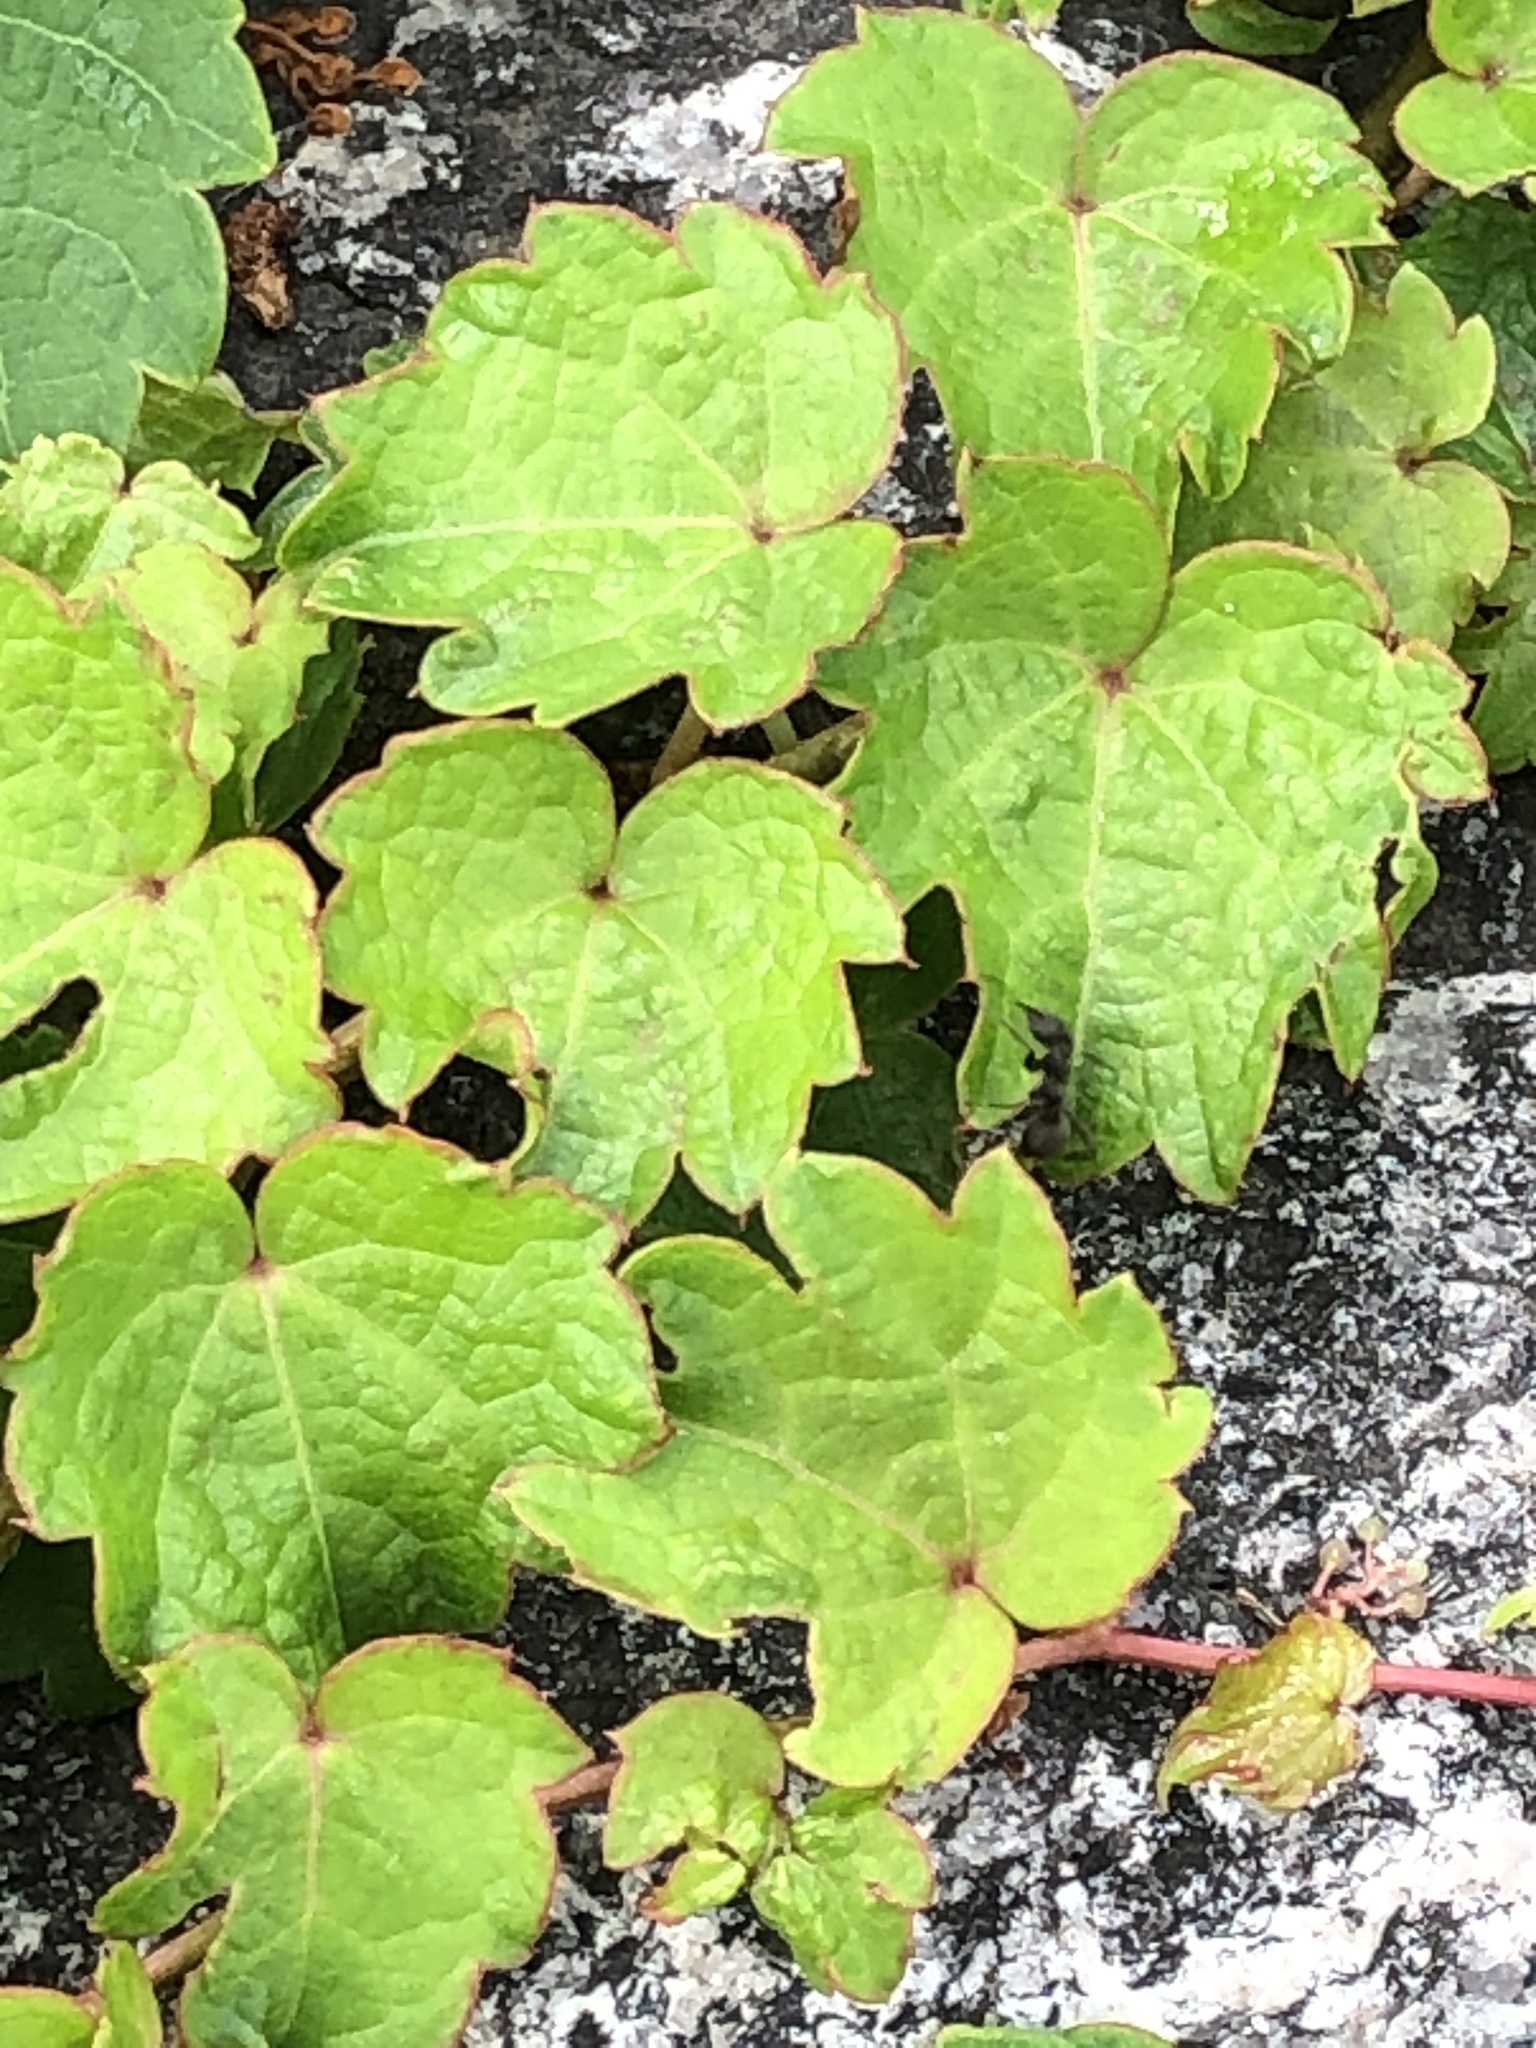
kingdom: Plantae
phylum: Tracheophyta
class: Magnoliopsida
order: Vitales
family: Vitaceae
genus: Parthenocissus
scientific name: Parthenocissus tricuspidata
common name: Boston ivy
